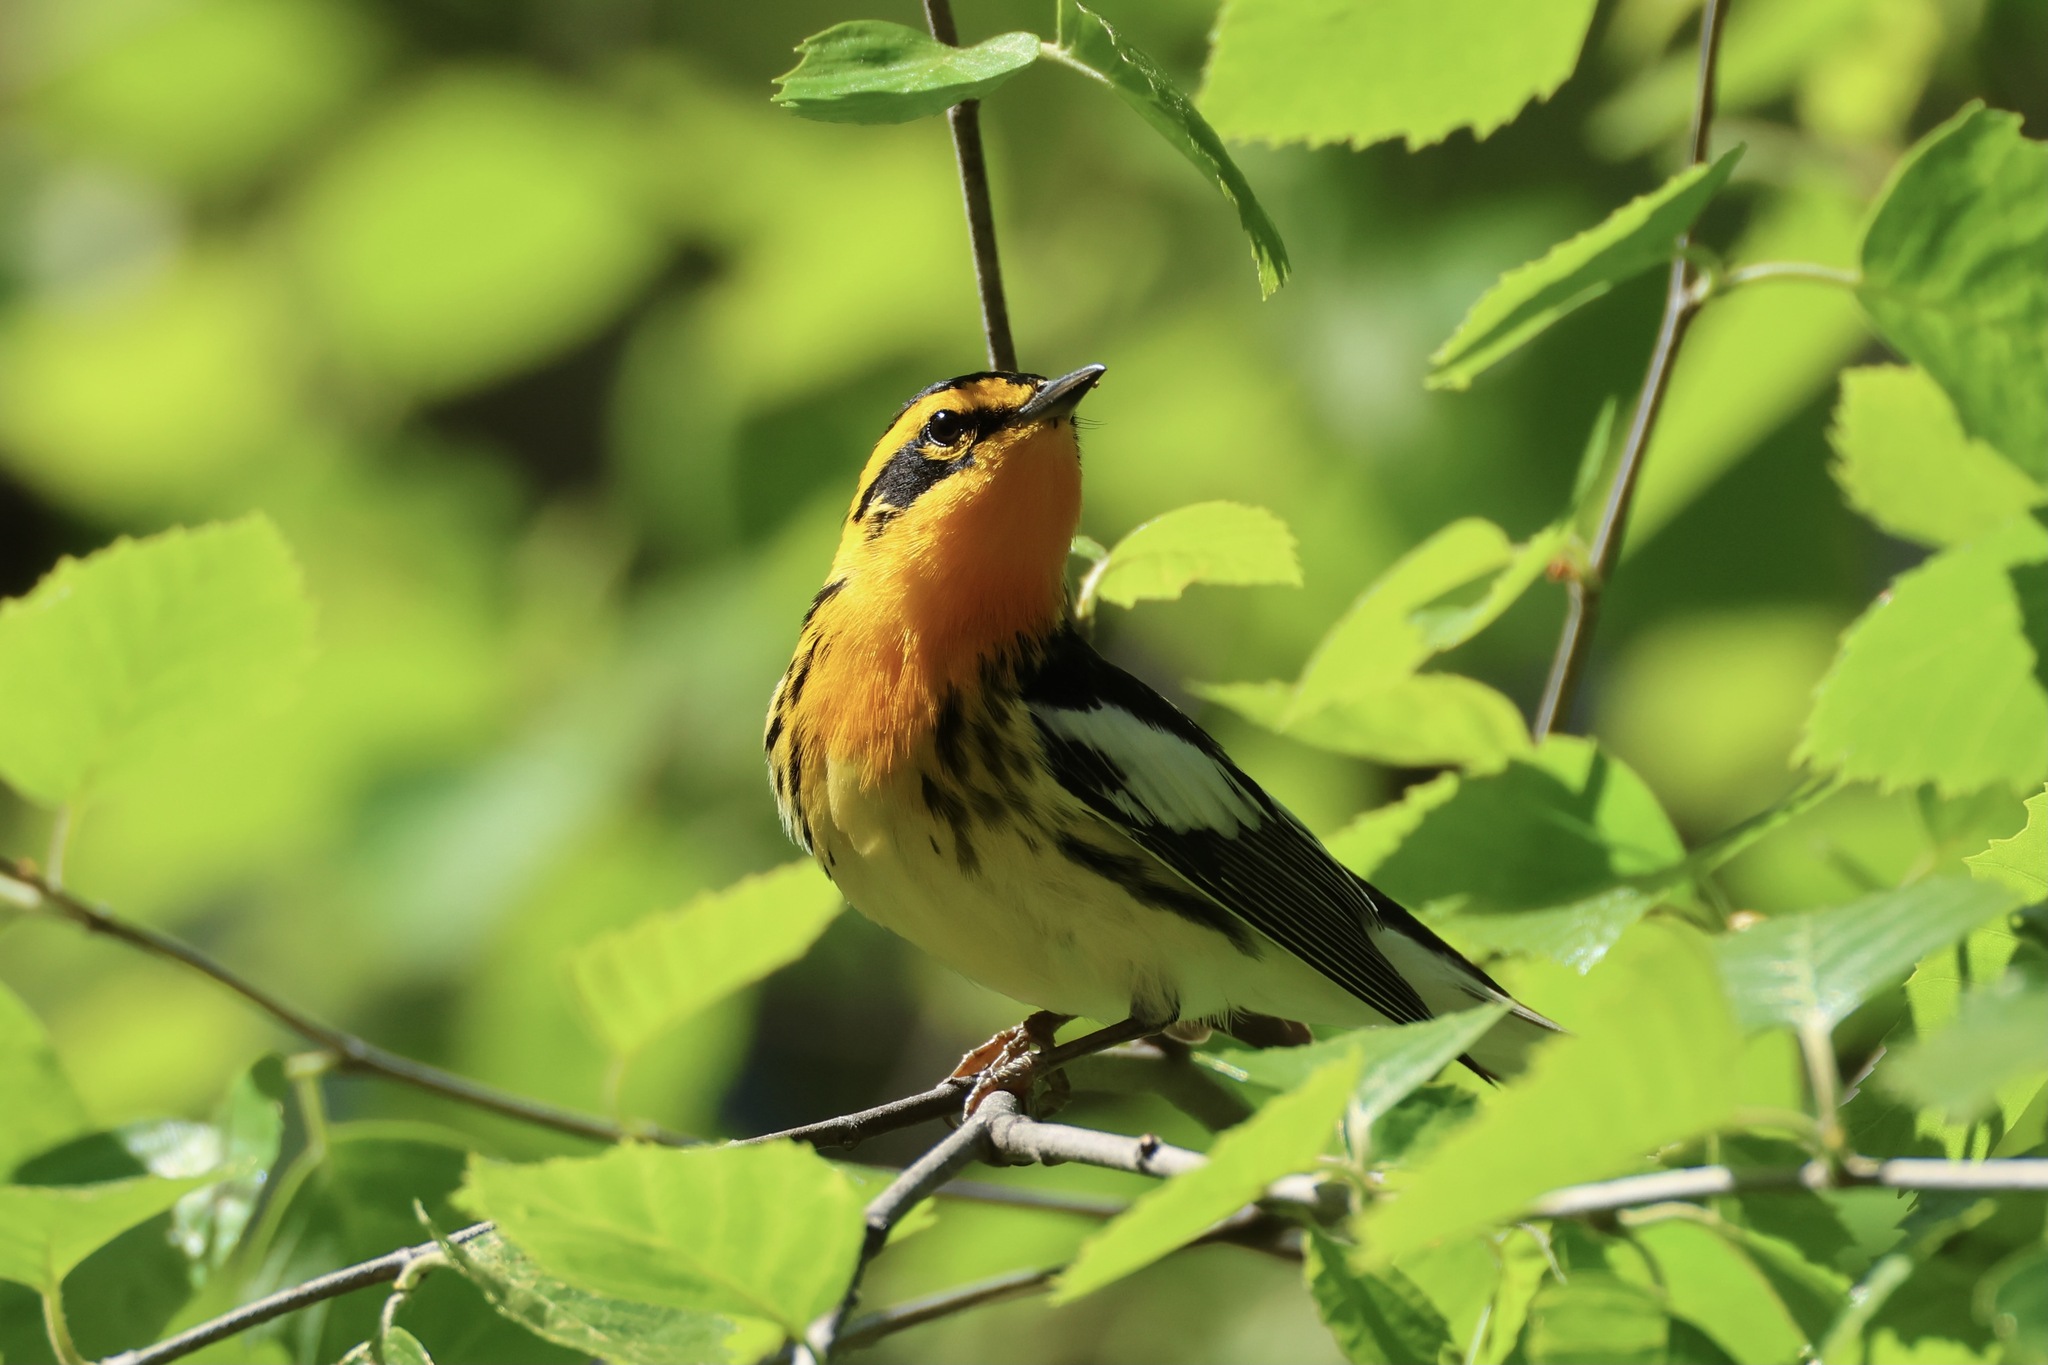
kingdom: Animalia
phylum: Chordata
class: Aves
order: Passeriformes
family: Parulidae
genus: Setophaga
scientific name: Setophaga fusca
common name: Blackburnian warbler
